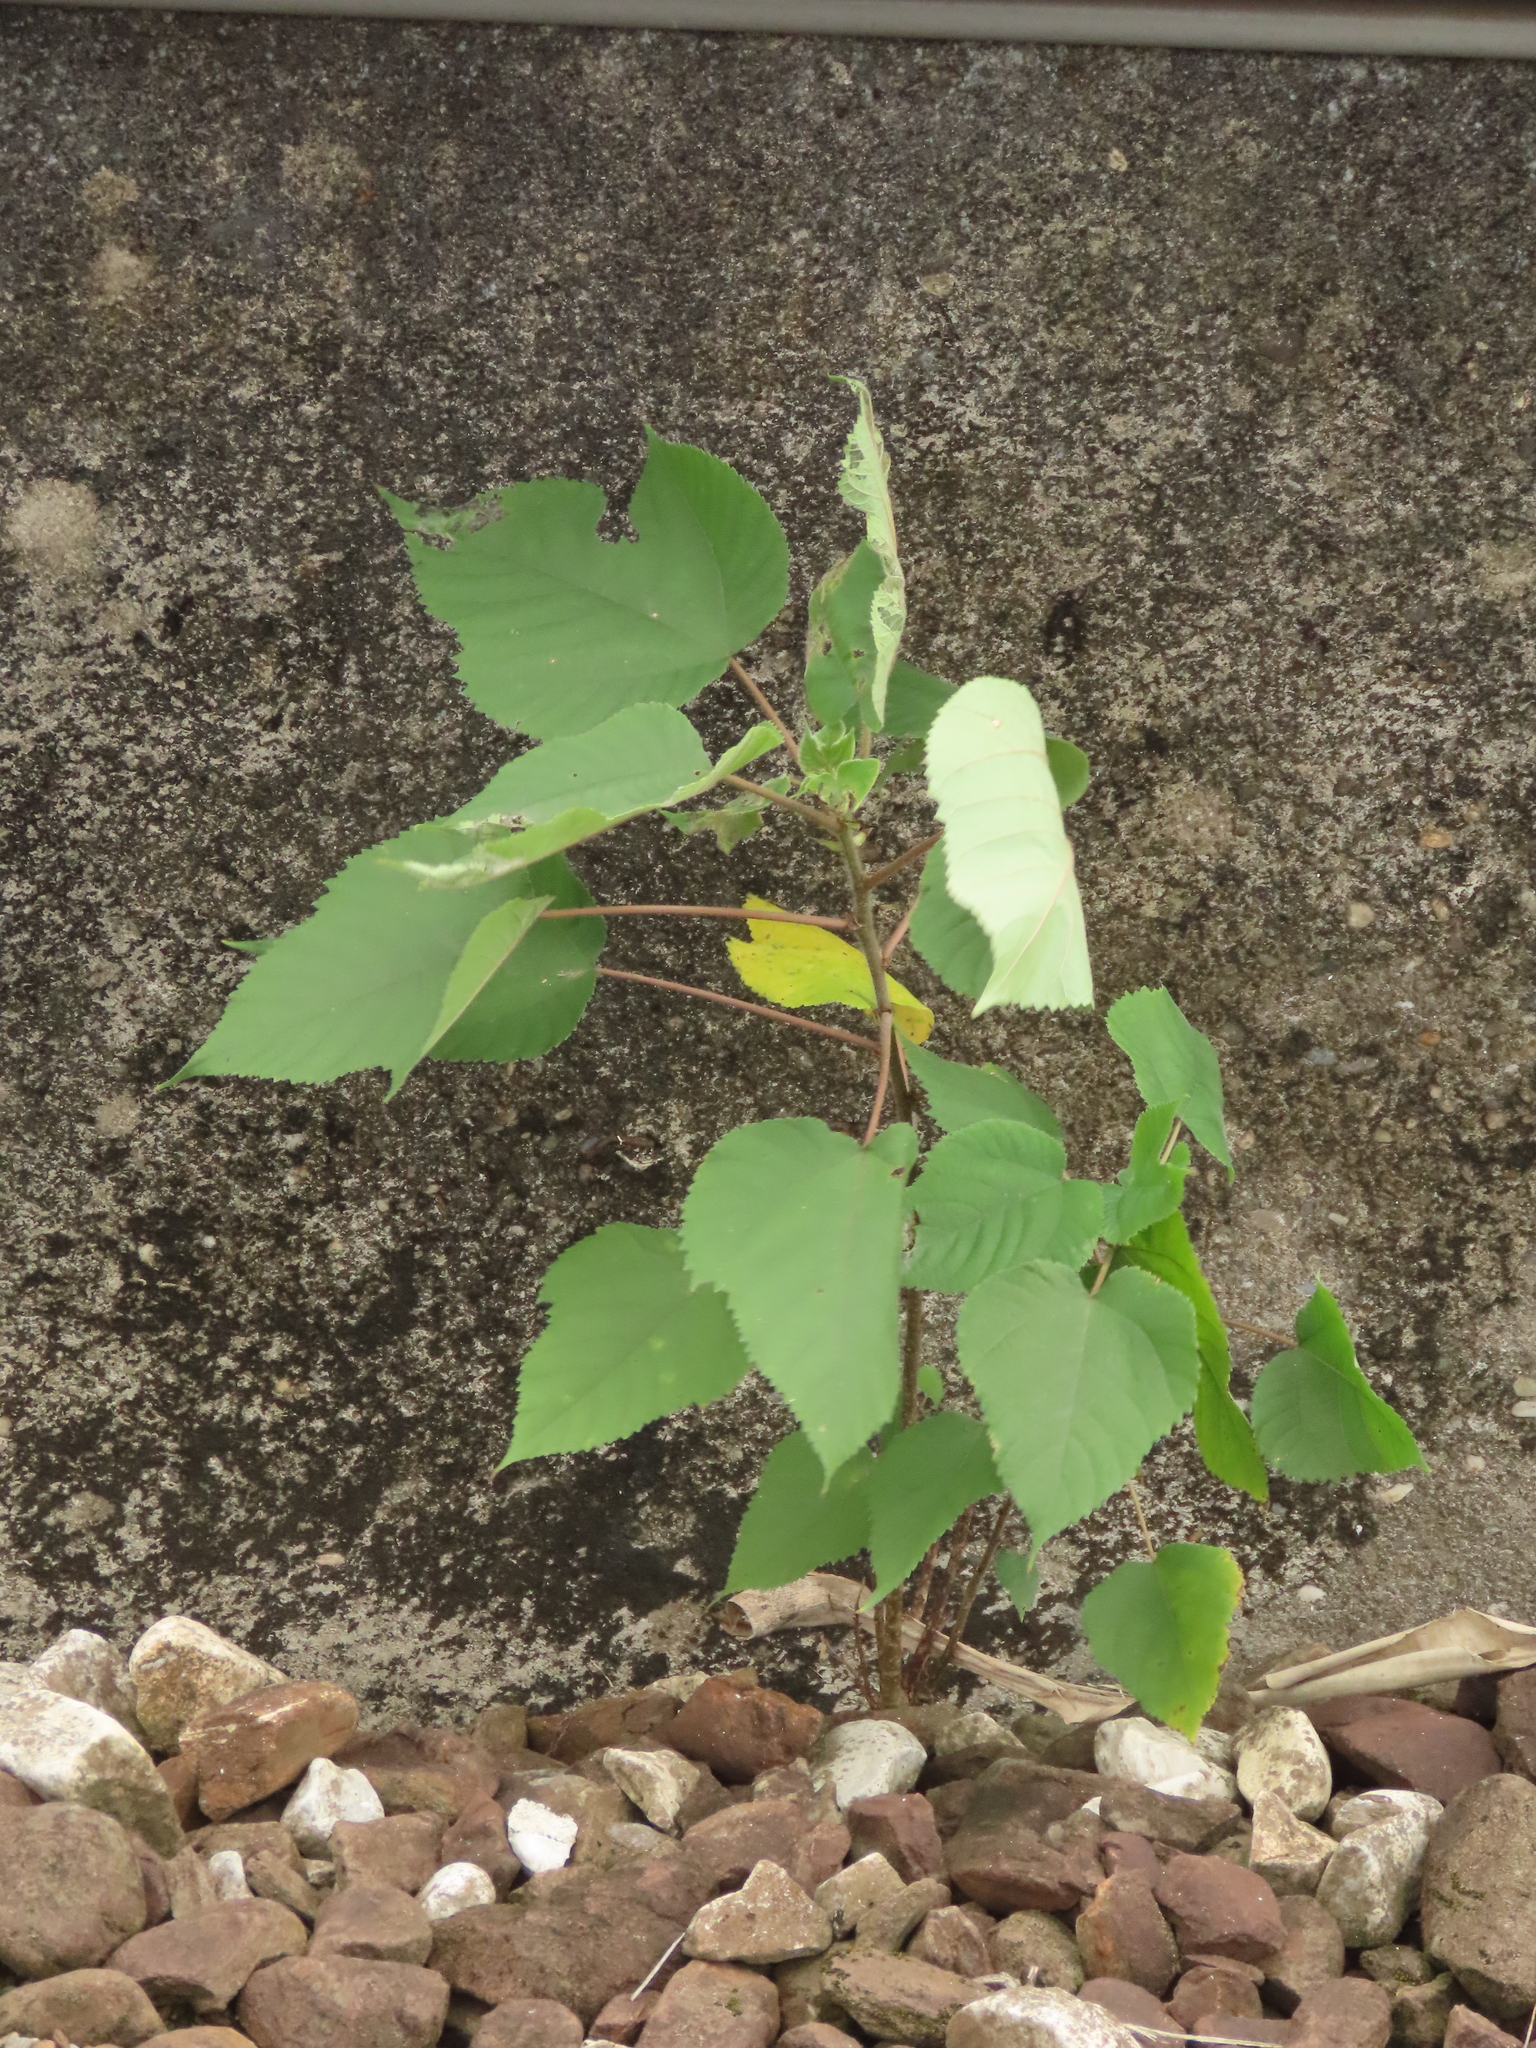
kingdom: Plantae
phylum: Tracheophyta
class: Magnoliopsida
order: Rosales
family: Moraceae
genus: Broussonetia
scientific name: Broussonetia papyrifera
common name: Paper mulberry
